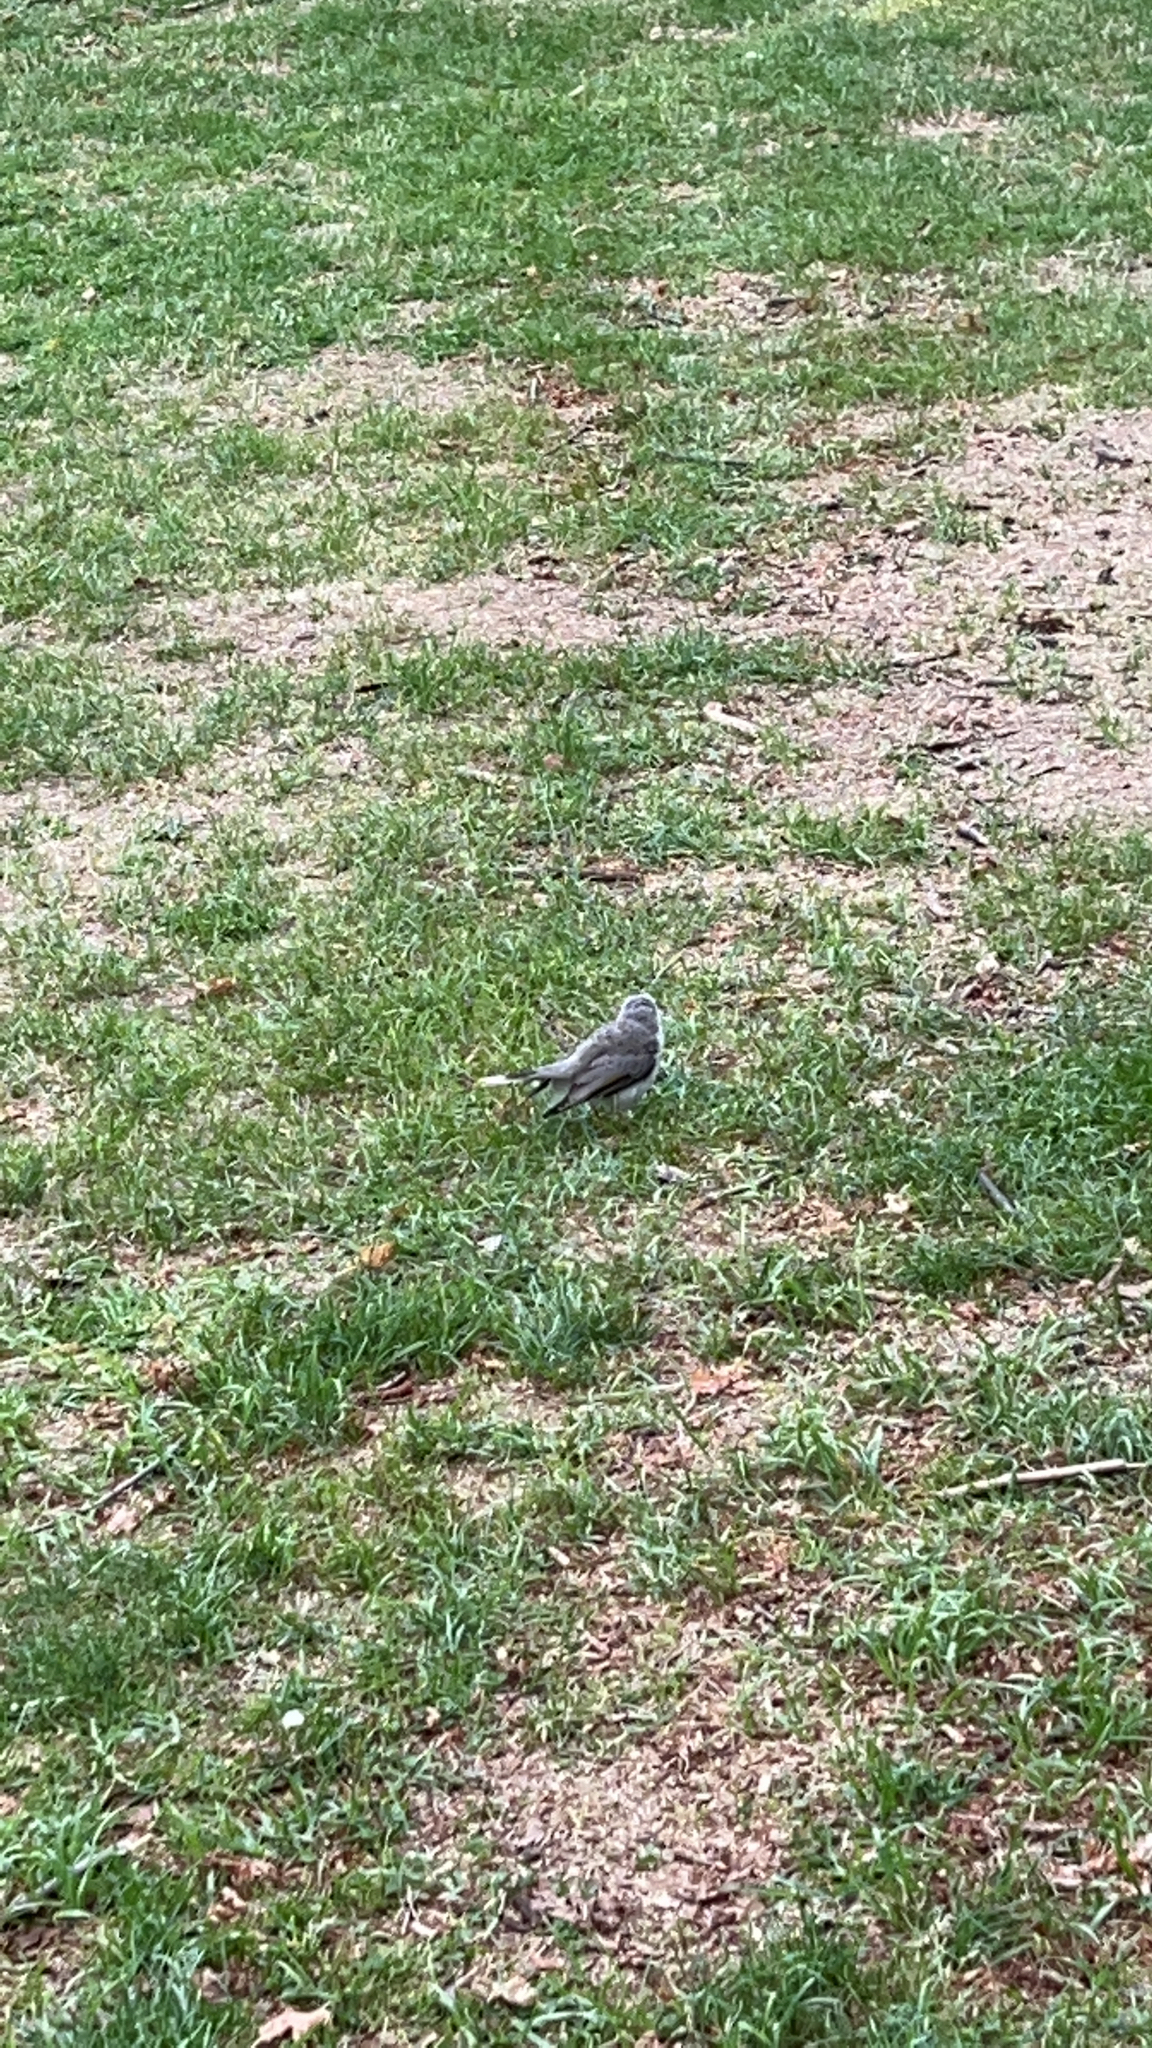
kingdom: Animalia
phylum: Chordata
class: Aves
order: Passeriformes
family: Meliphagidae
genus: Manorina
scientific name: Manorina melanocephala
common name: Noisy miner
